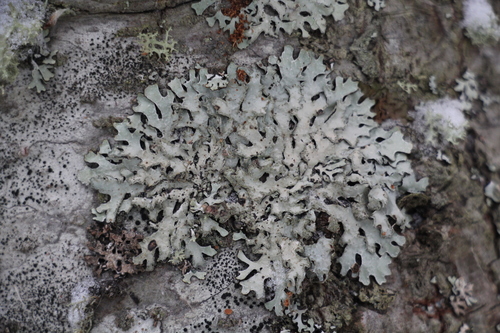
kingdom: Fungi
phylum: Ascomycota
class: Lecanoromycetes
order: Lecanorales
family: Parmeliaceae
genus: Parmelia
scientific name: Parmelia sulcata
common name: Netted shield lichen
